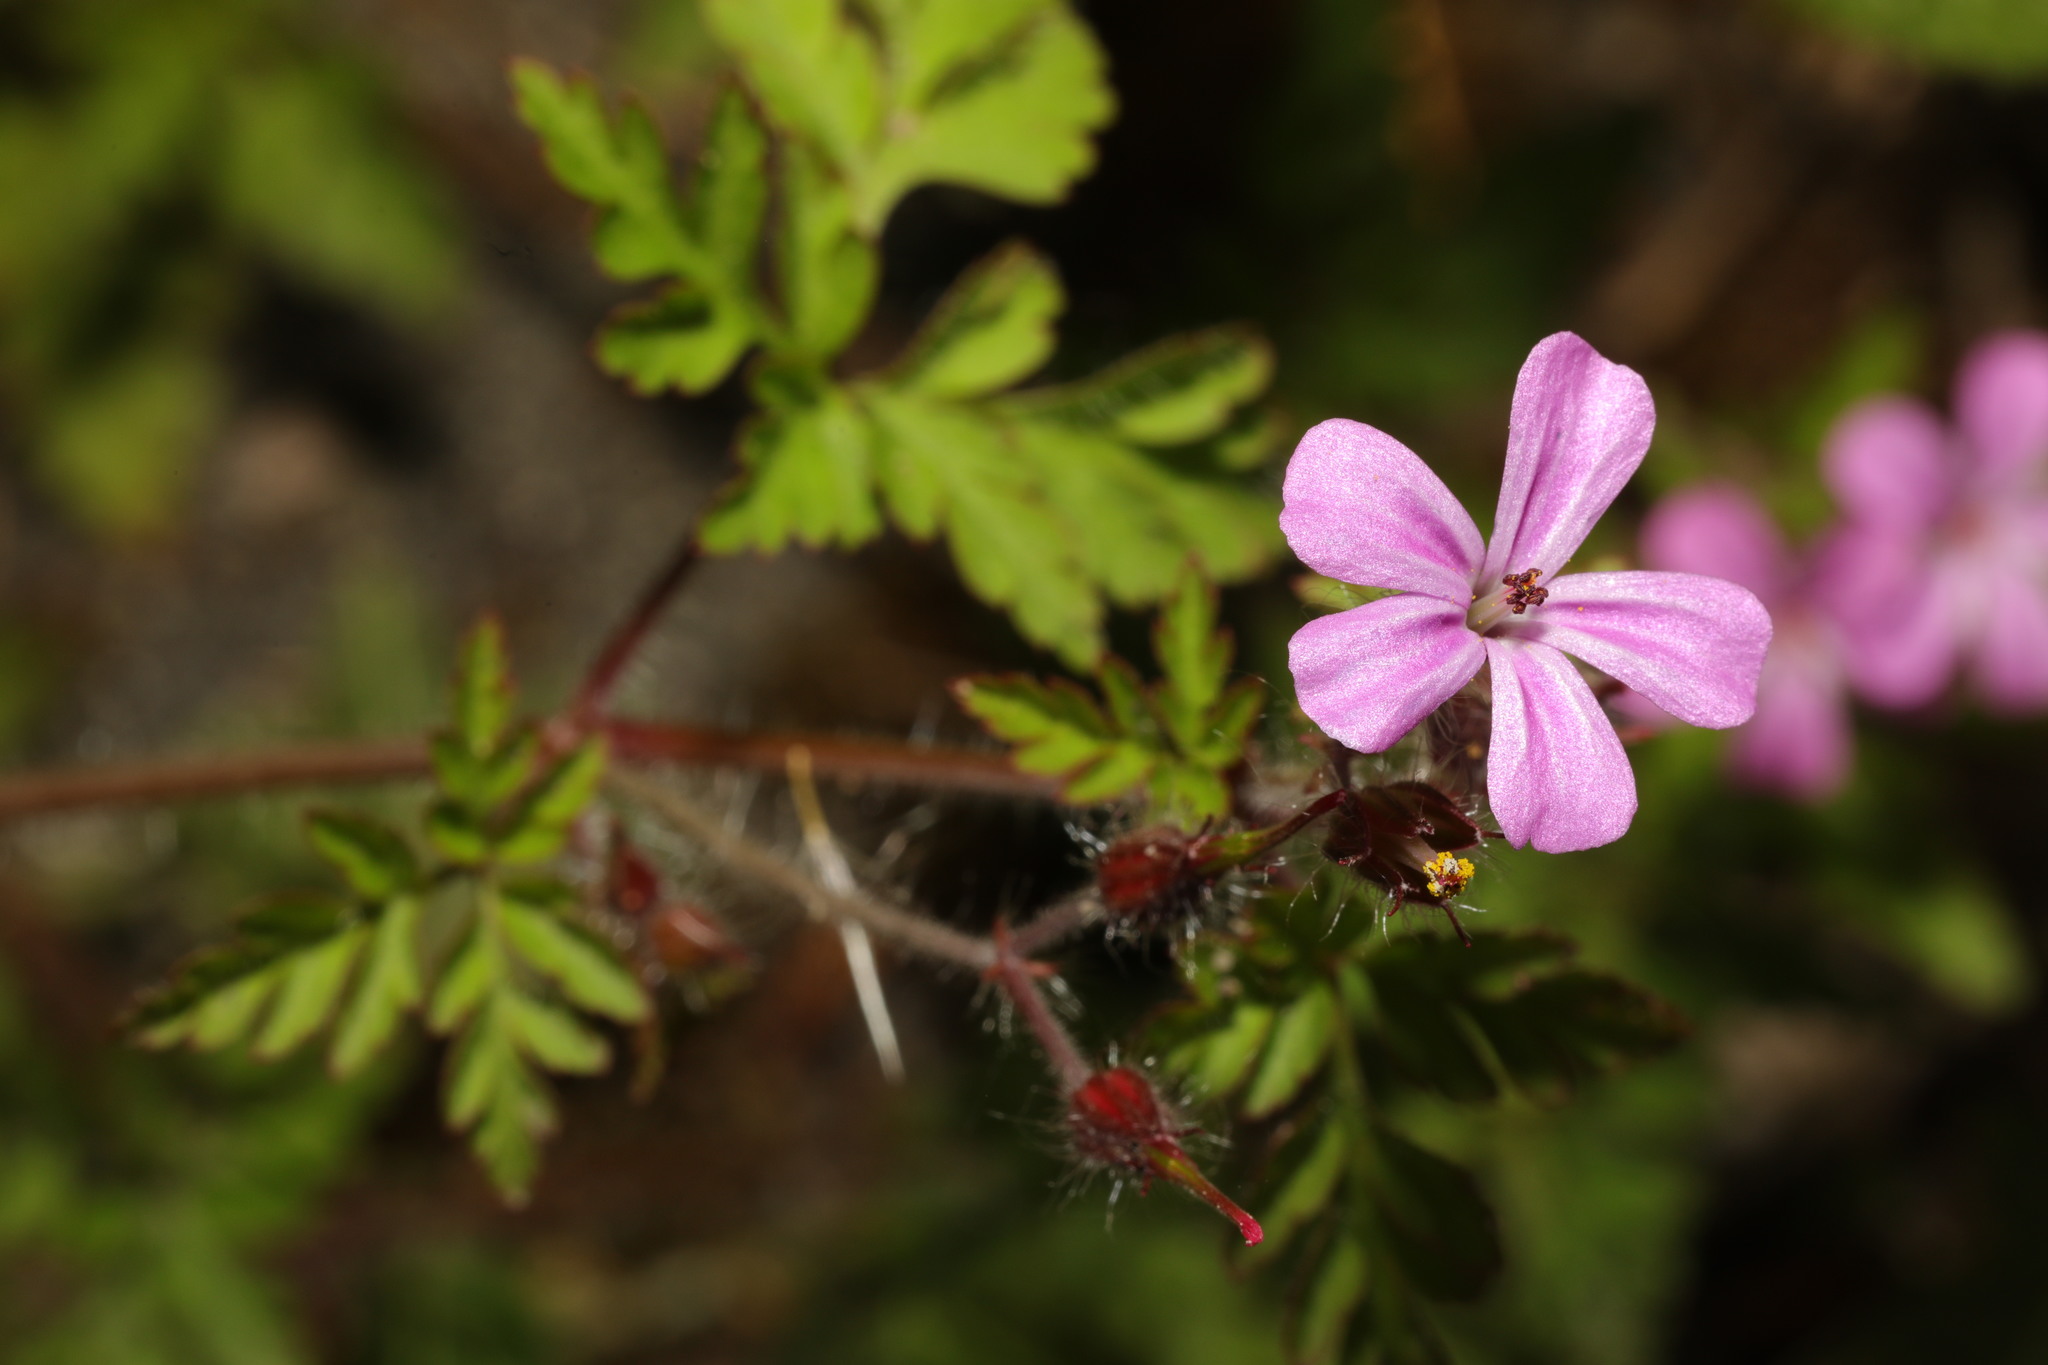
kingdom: Plantae
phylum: Tracheophyta
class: Magnoliopsida
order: Geraniales
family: Geraniaceae
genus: Geranium
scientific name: Geranium robertianum
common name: Herb-robert
